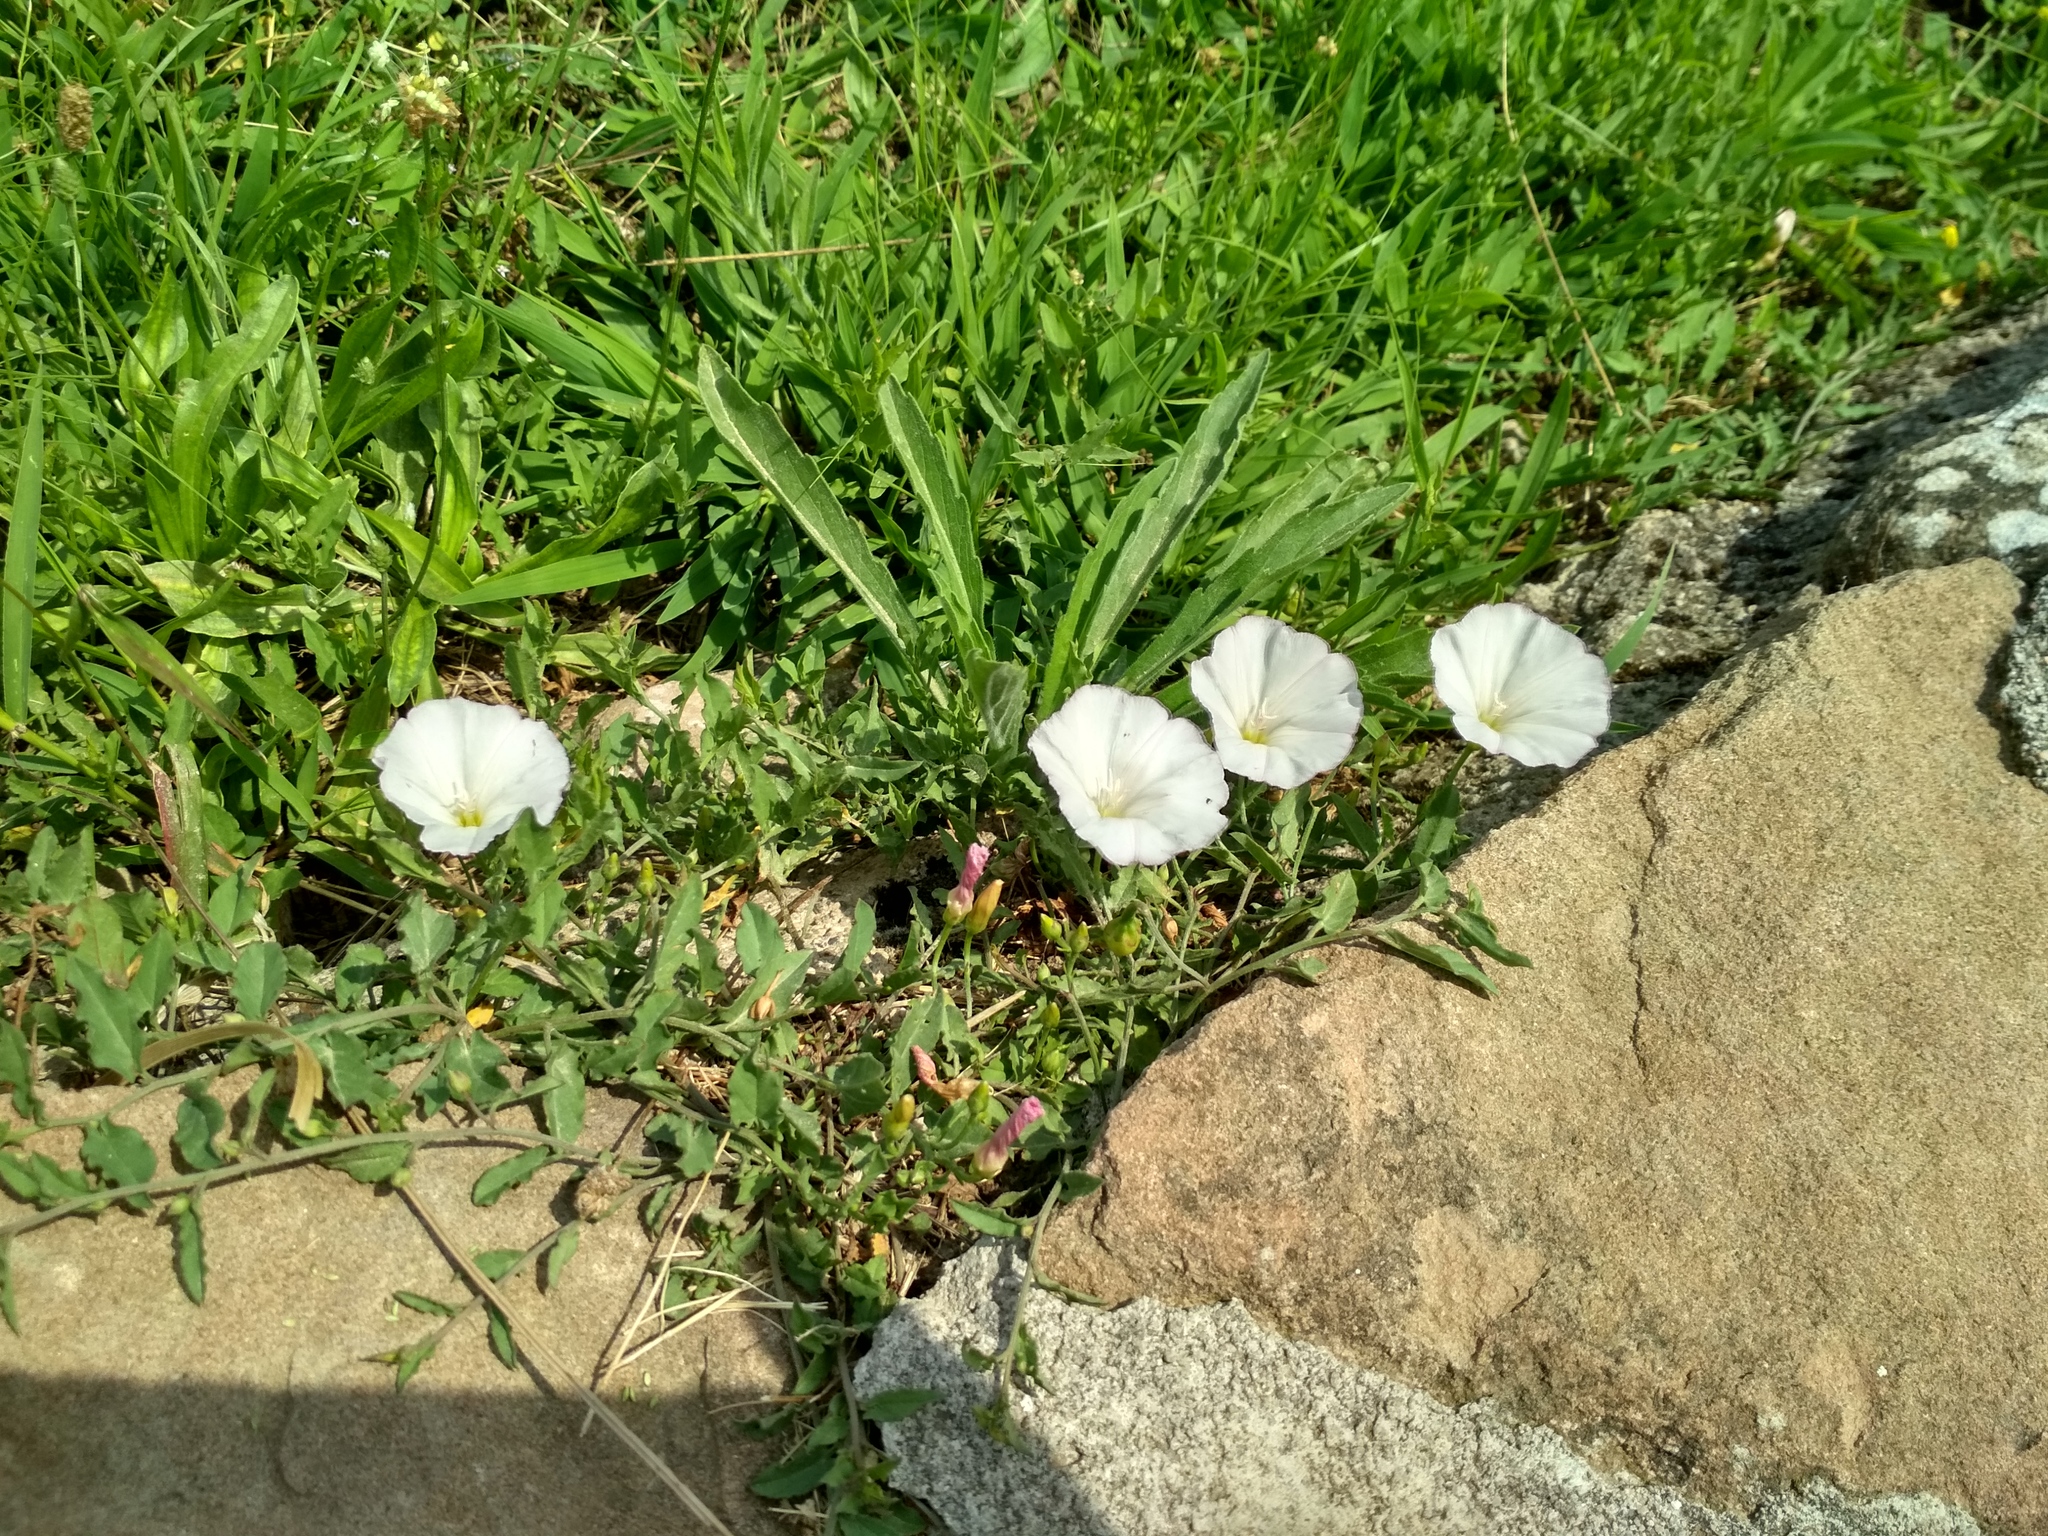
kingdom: Plantae
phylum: Tracheophyta
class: Magnoliopsida
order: Solanales
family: Convolvulaceae
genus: Convolvulus
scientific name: Convolvulus arvensis
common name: Field bindweed
